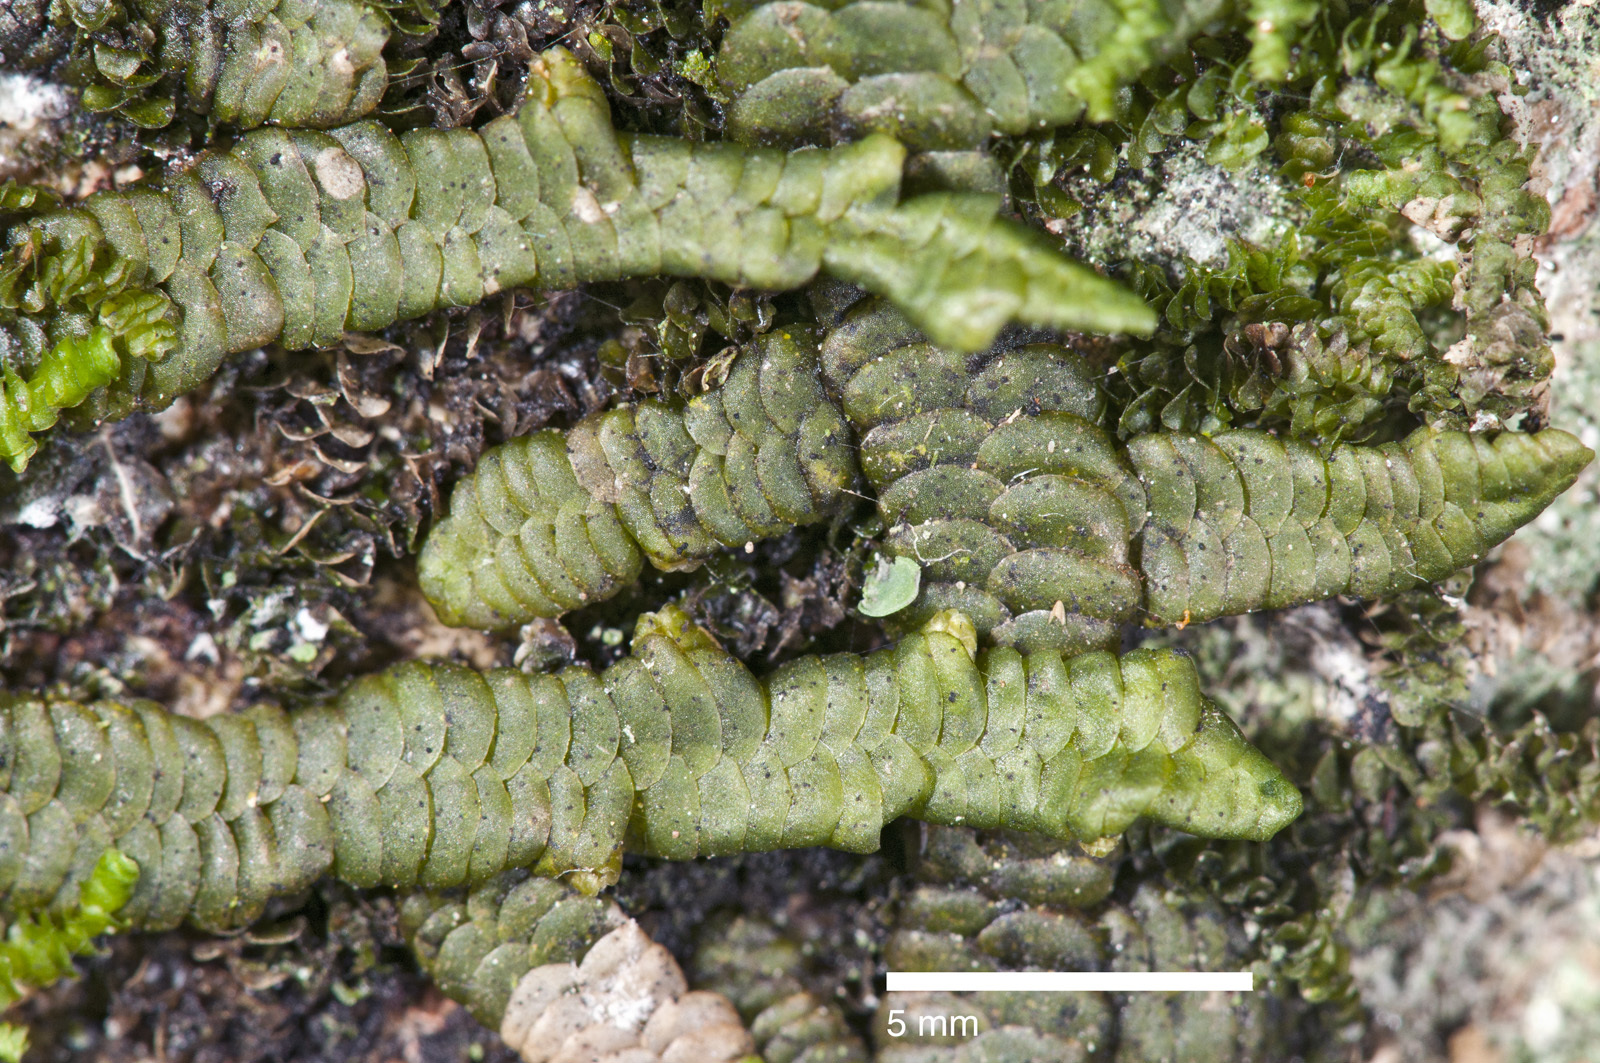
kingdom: Plantae
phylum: Marchantiophyta
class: Jungermanniopsida
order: Porellales
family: Porellaceae
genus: Porella
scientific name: Porella elegantula
